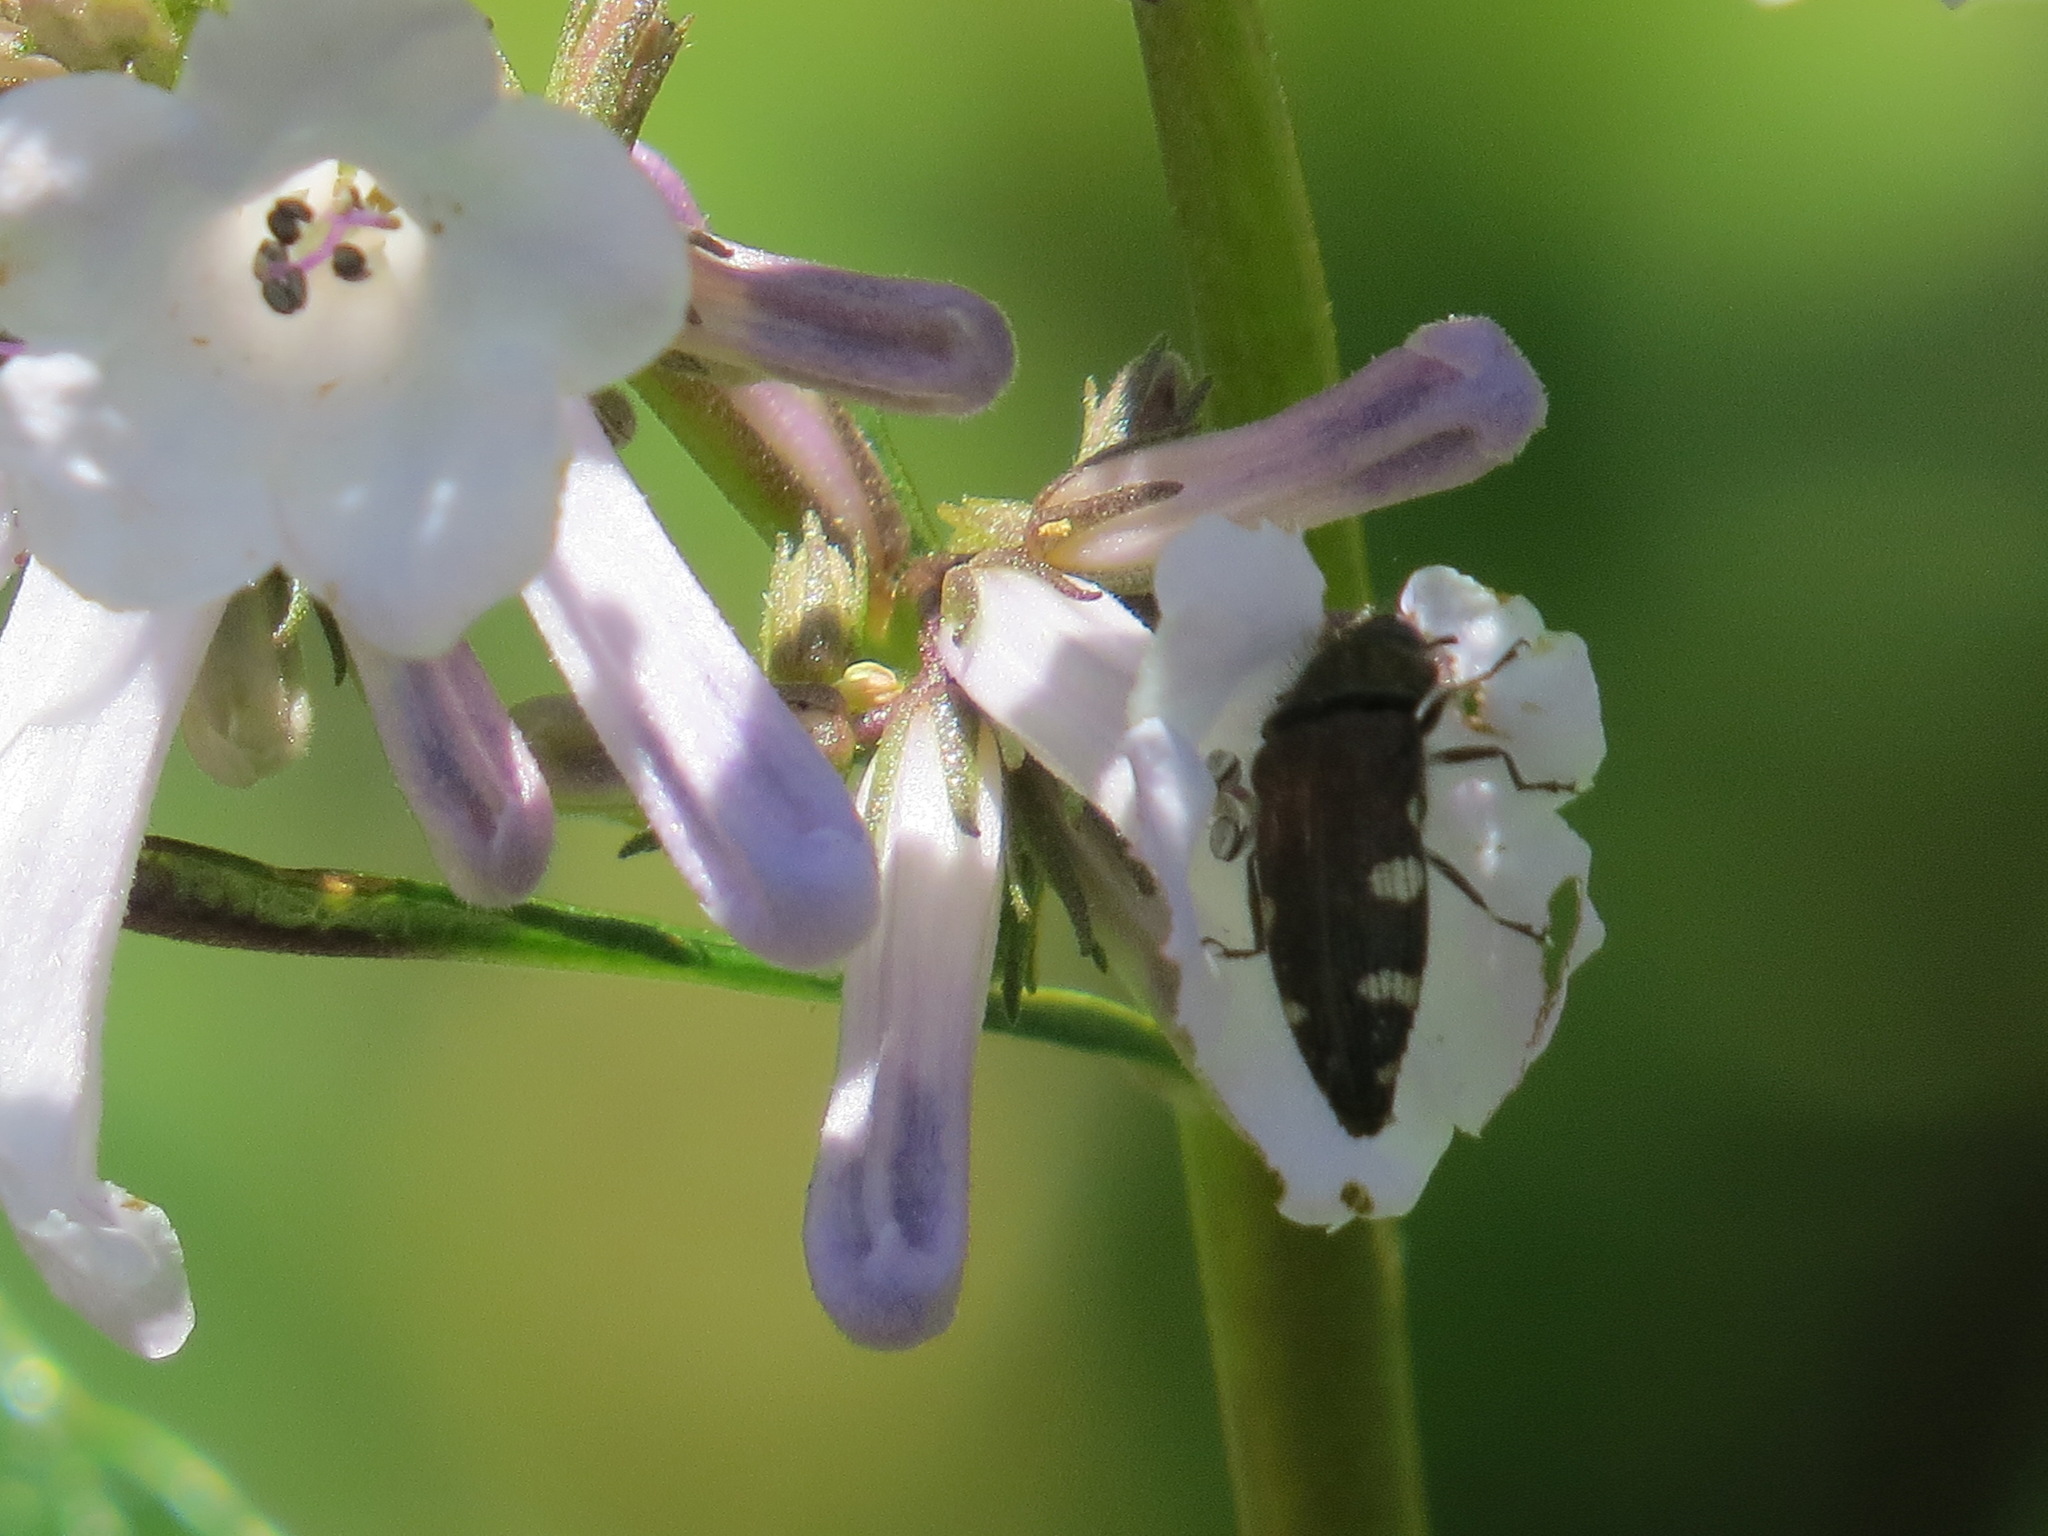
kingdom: Animalia
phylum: Arthropoda
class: Insecta
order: Coleoptera
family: Buprestidae
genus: Acmaeodera
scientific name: Acmaeodera prorsa
